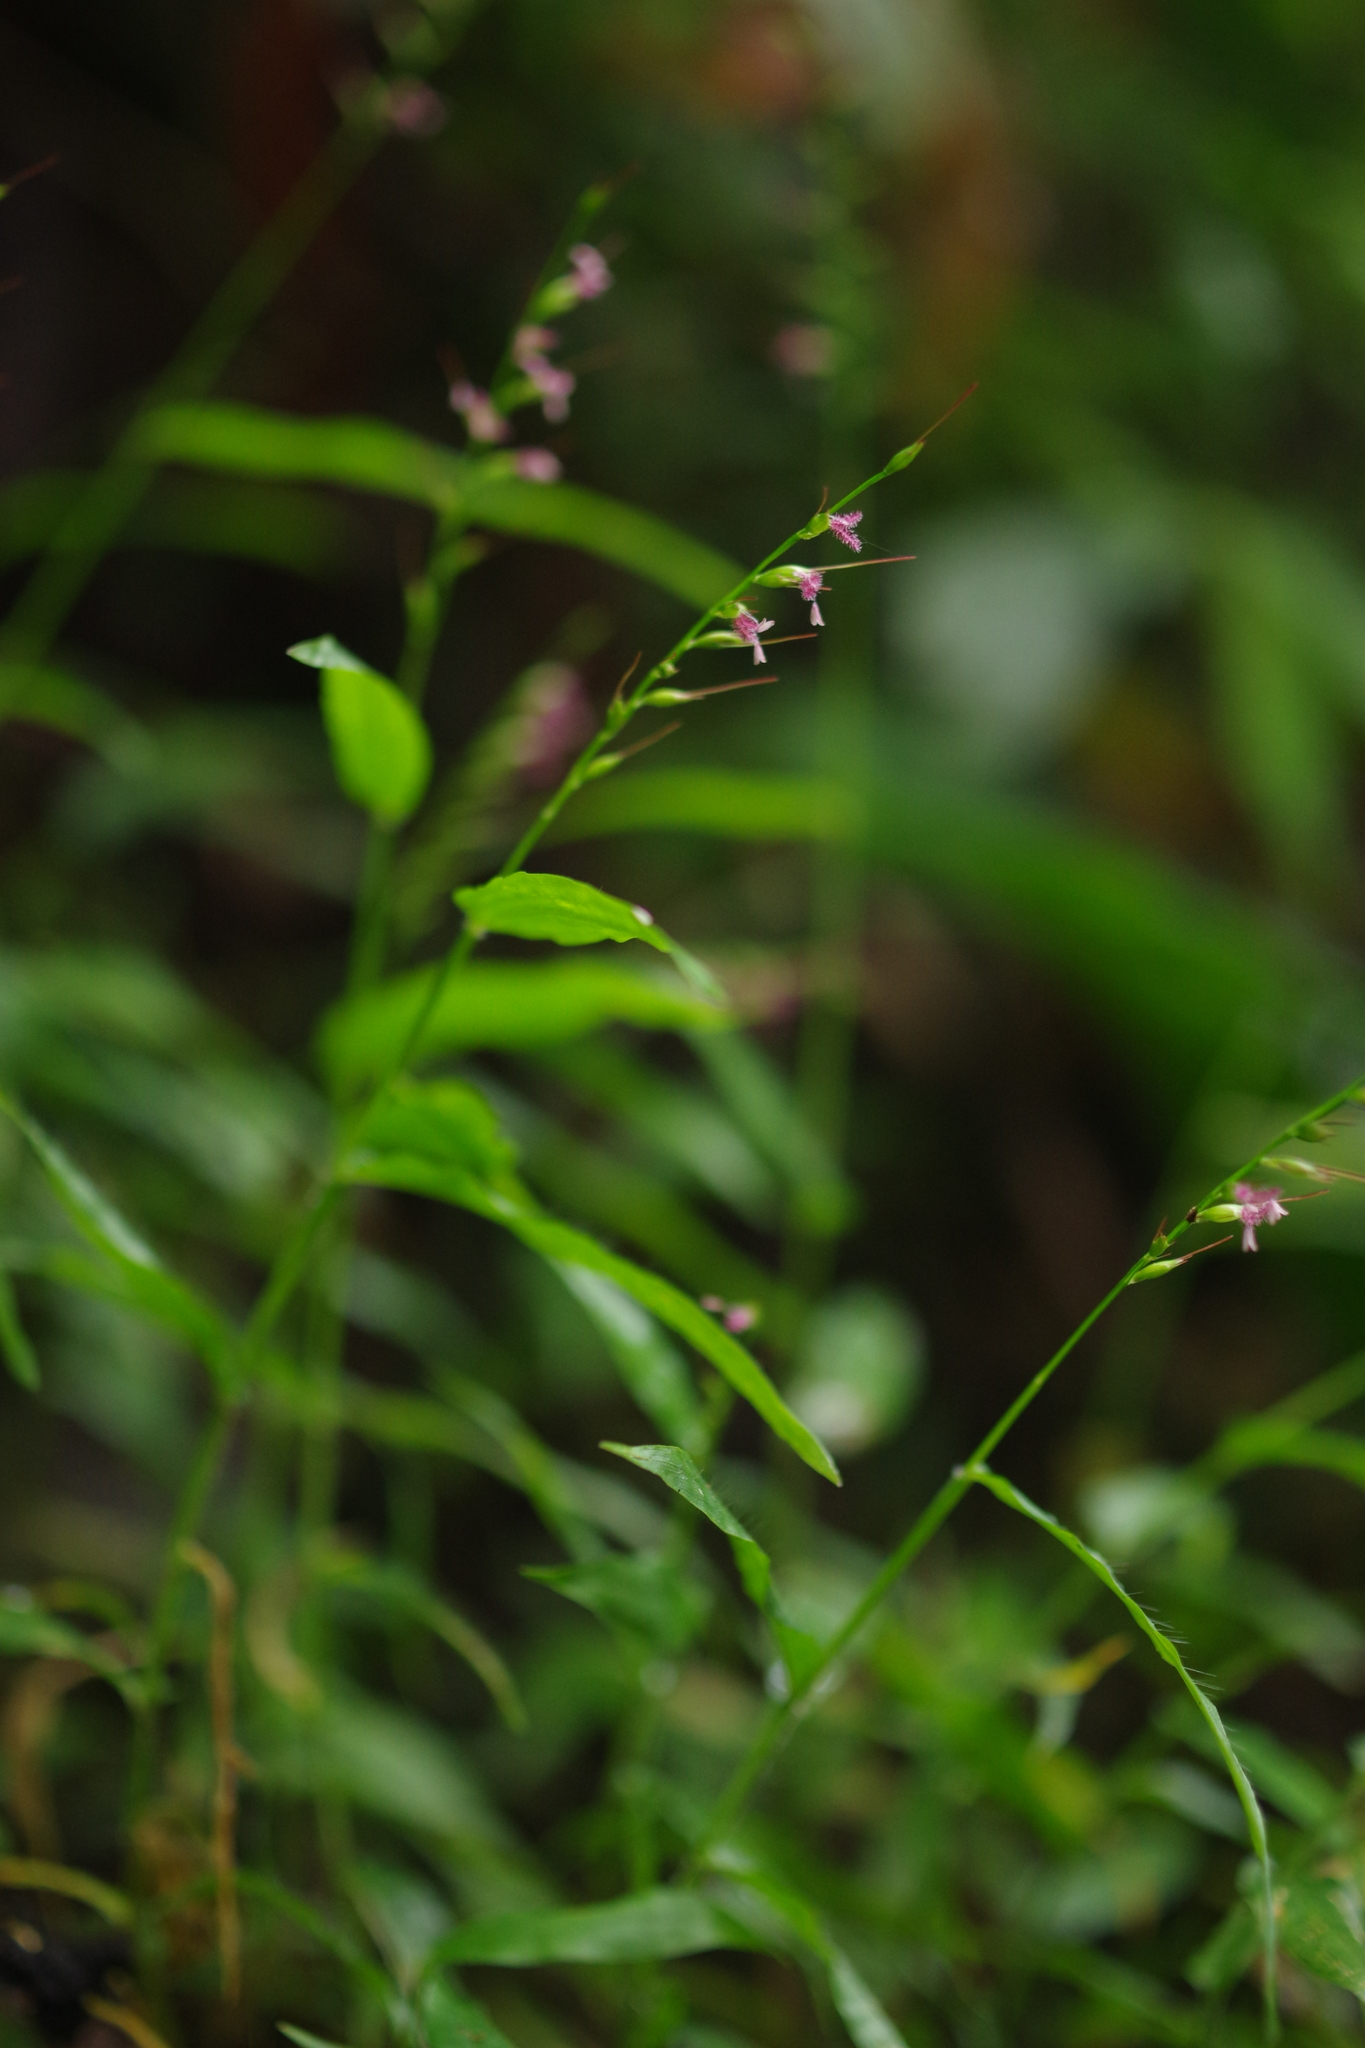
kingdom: Plantae
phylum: Tracheophyta
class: Liliopsida
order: Poales
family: Poaceae
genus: Oplismenus
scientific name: Oplismenus hirtellus
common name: Basketgrass
